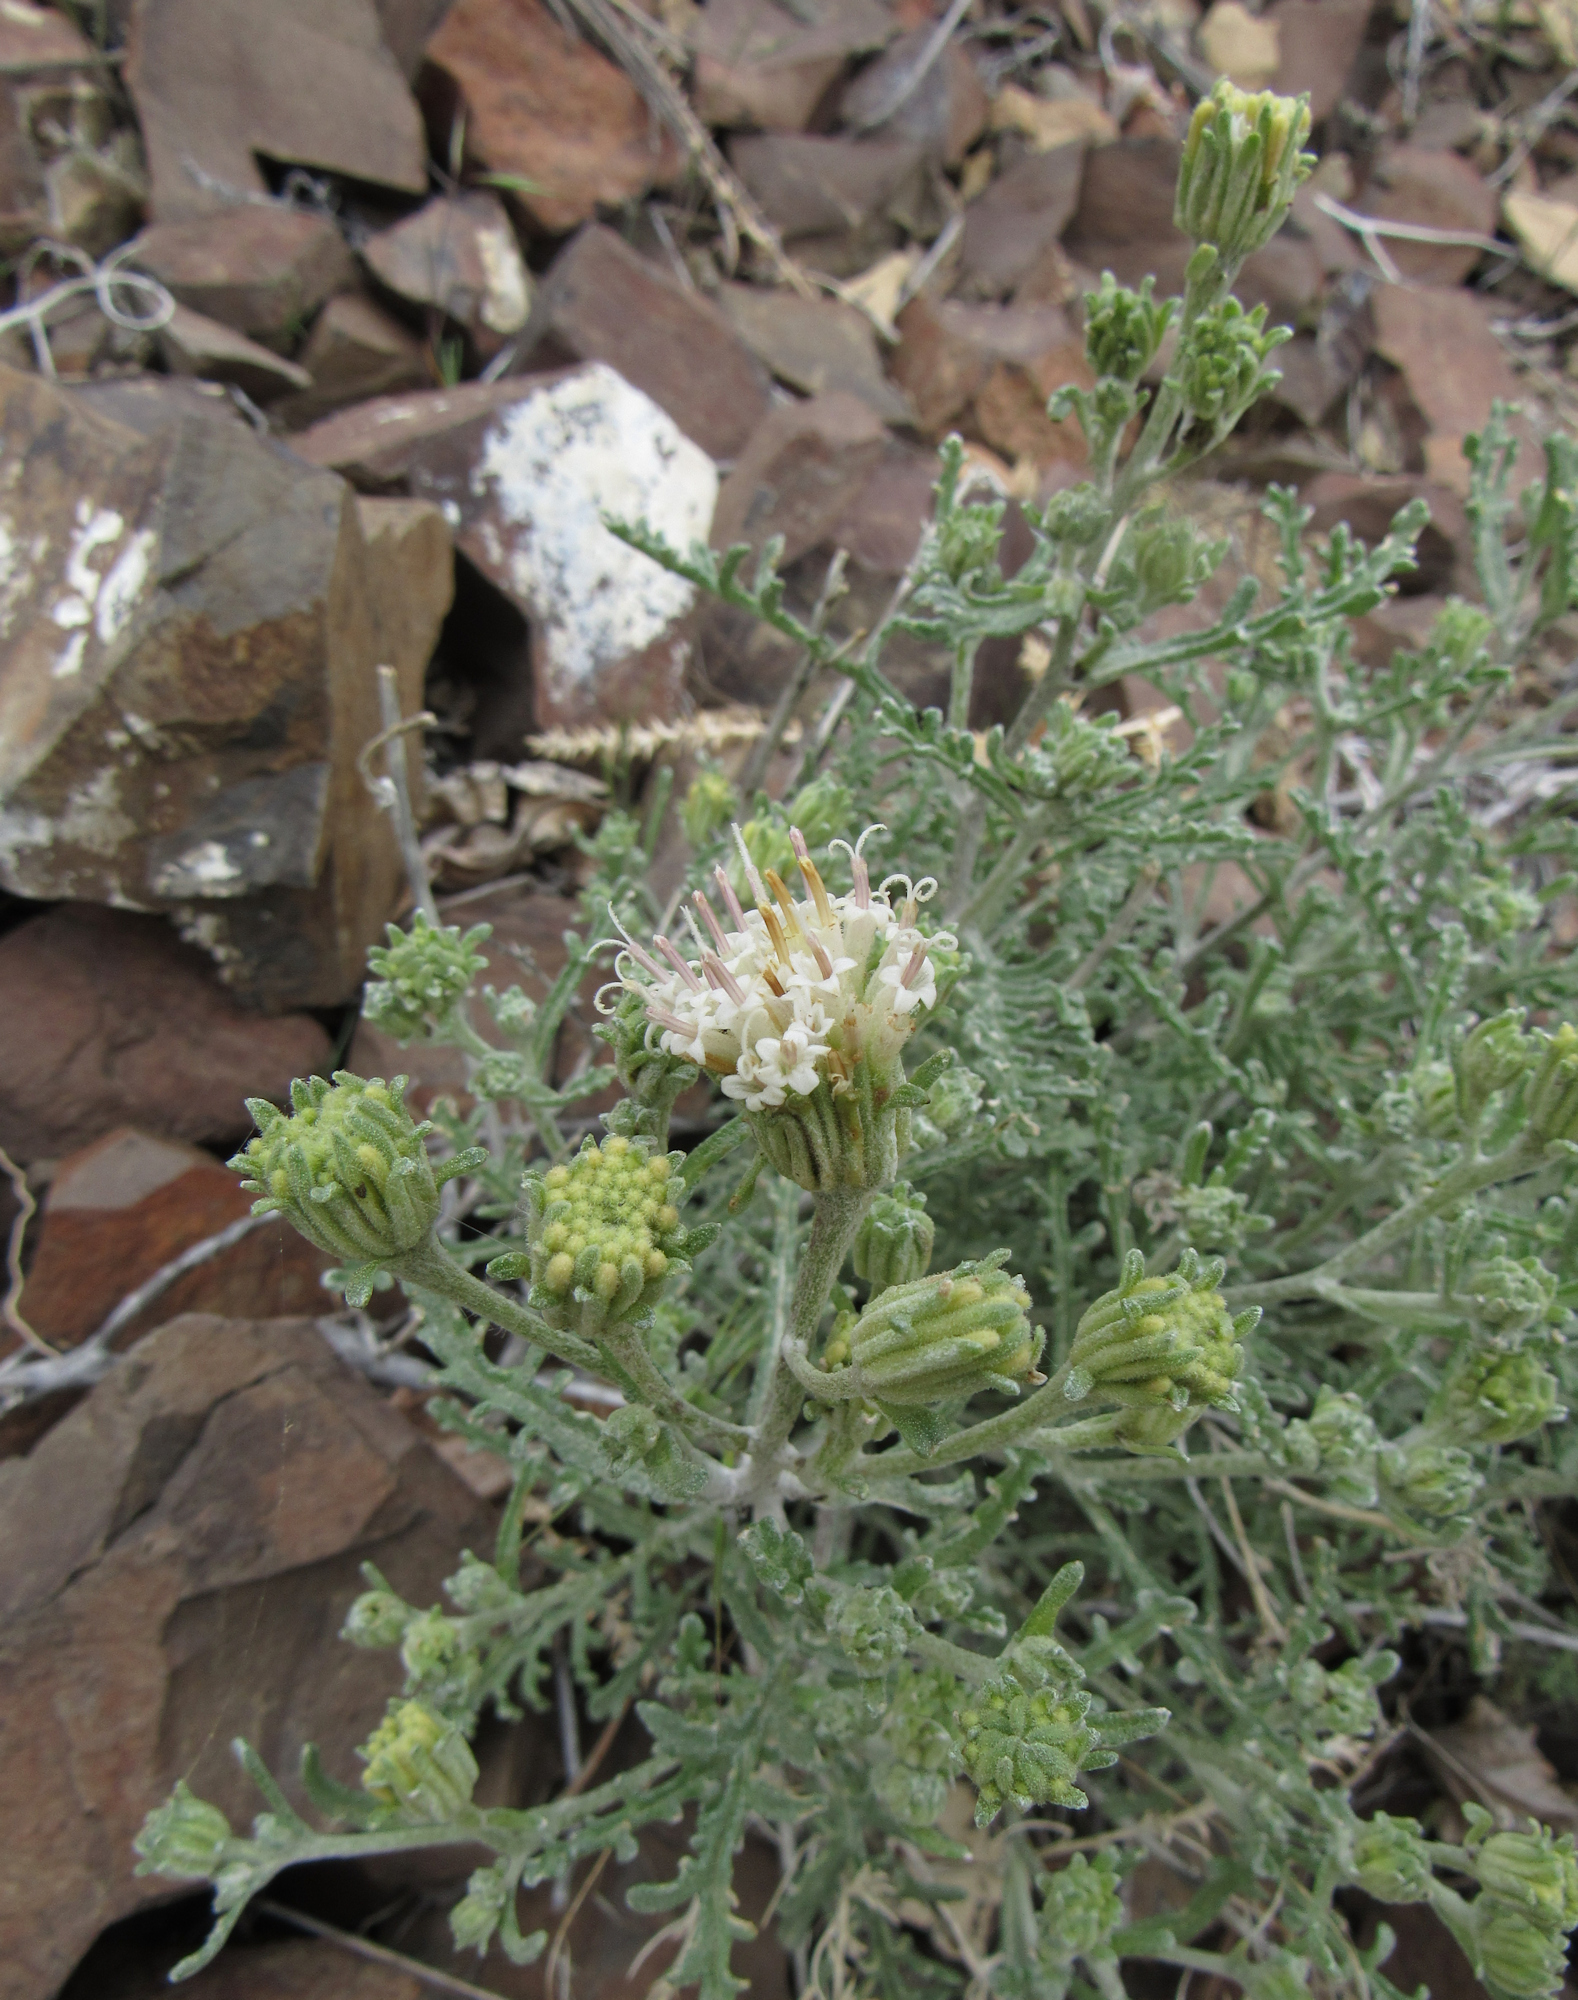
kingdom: Plantae
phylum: Tracheophyta
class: Magnoliopsida
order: Asterales
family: Asteraceae
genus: Chaenactis
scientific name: Chaenactis douglasii
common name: Hoary pincushion
